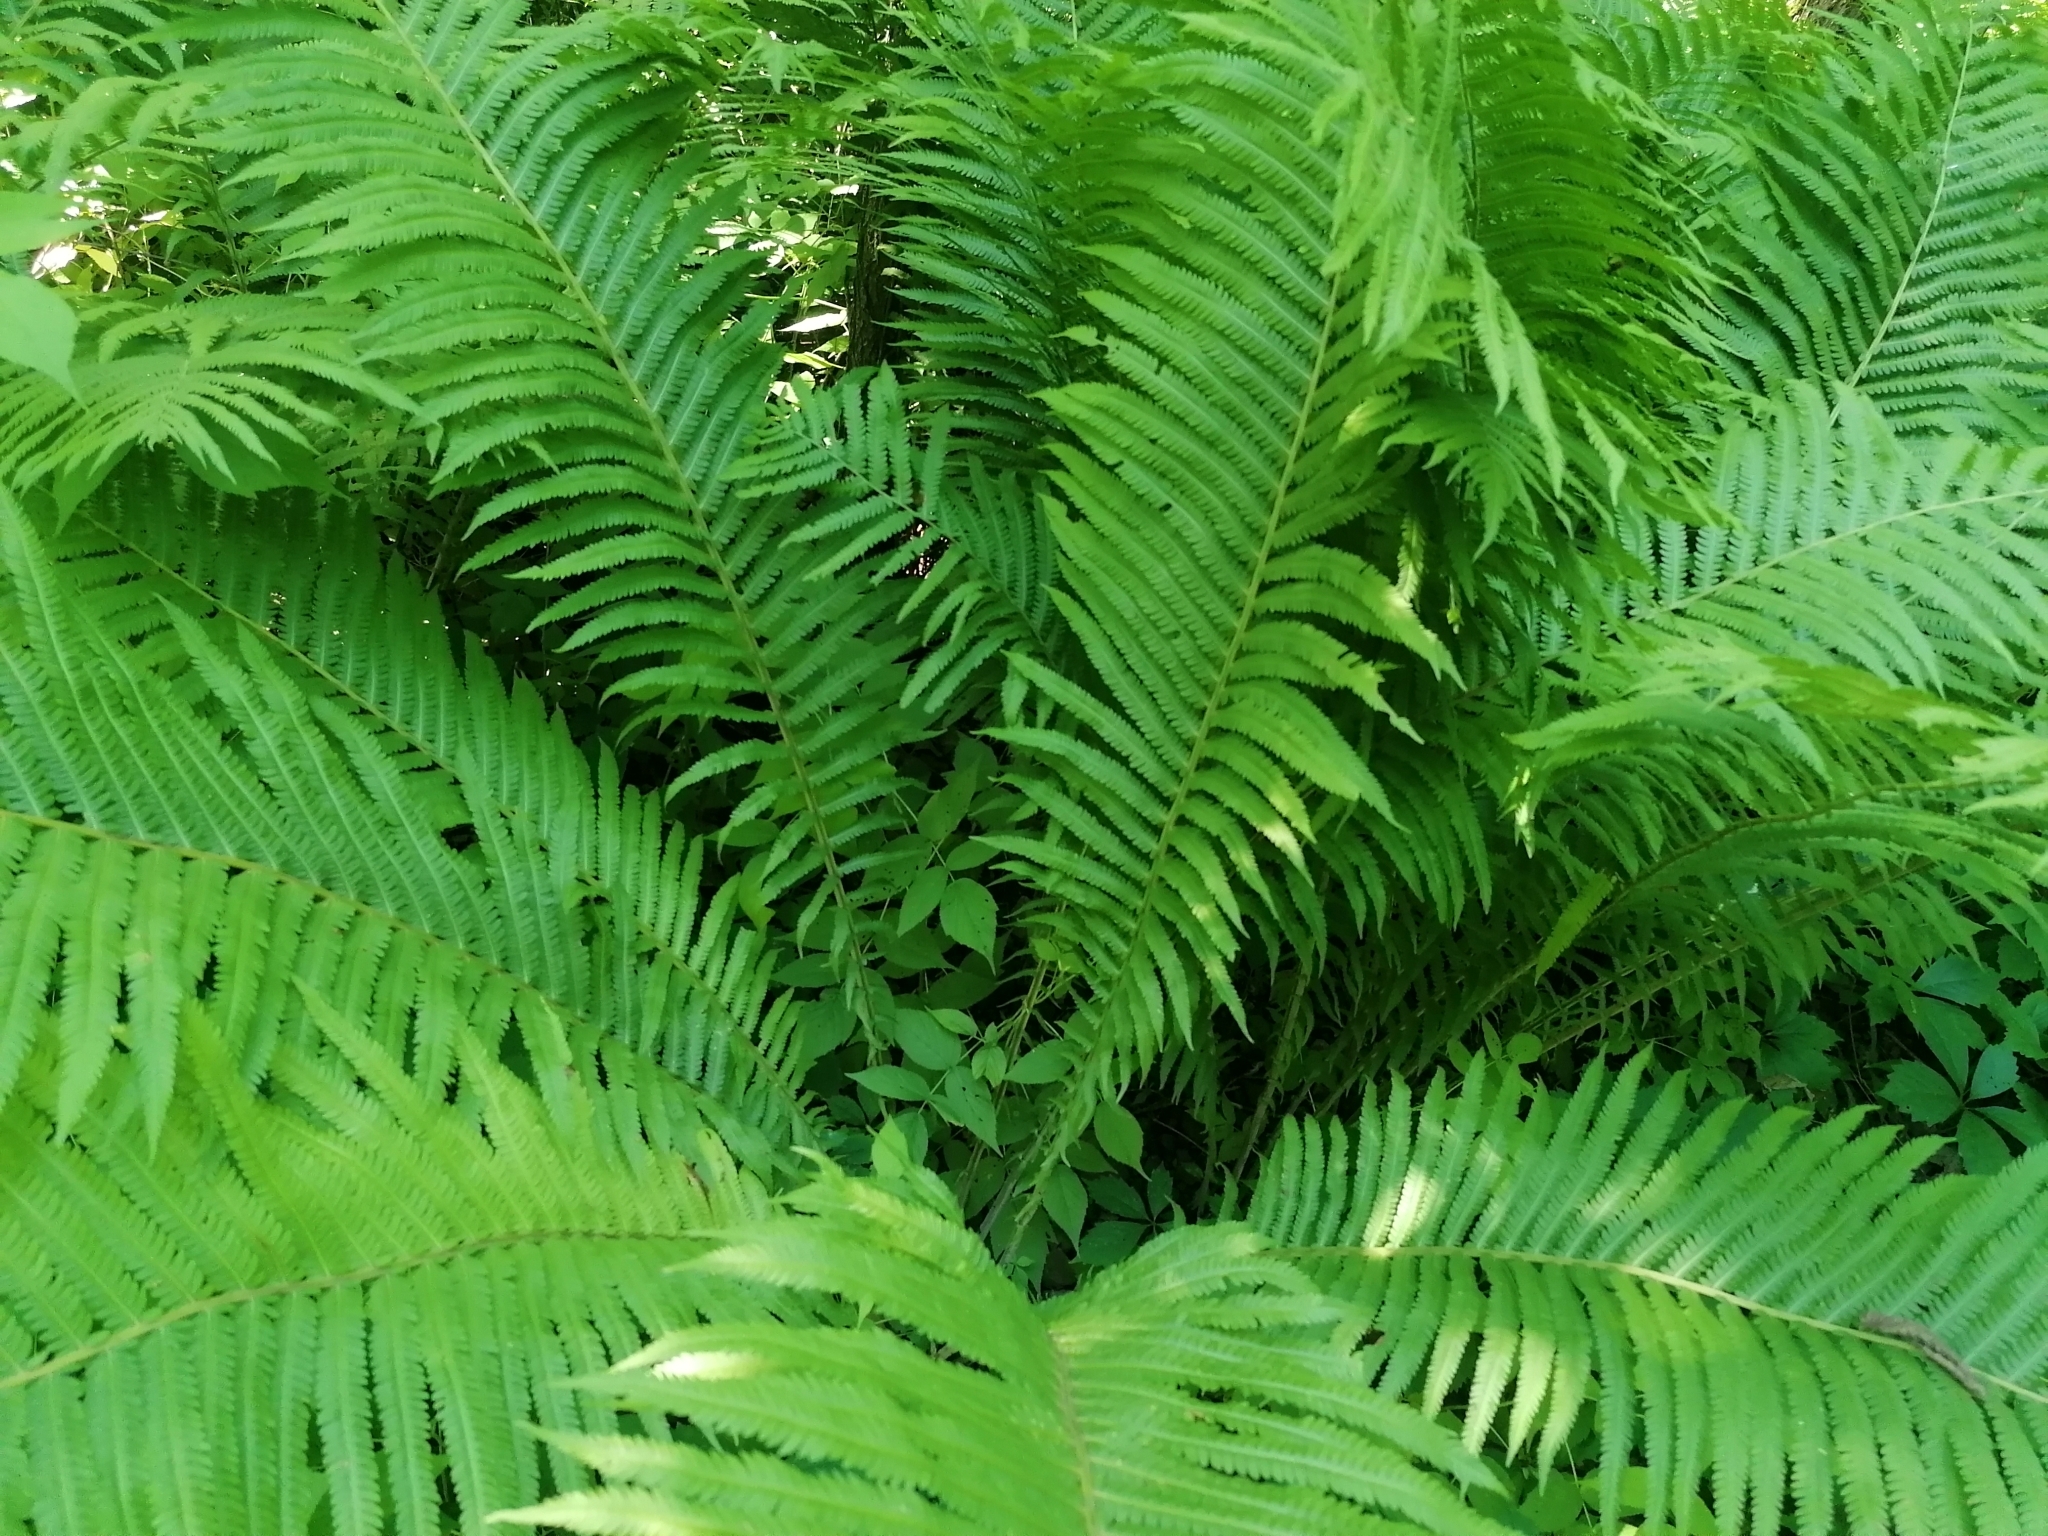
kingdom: Plantae
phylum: Tracheophyta
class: Polypodiopsida
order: Polypodiales
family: Onocleaceae
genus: Matteuccia
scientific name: Matteuccia struthiopteris
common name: Ostrich fern
